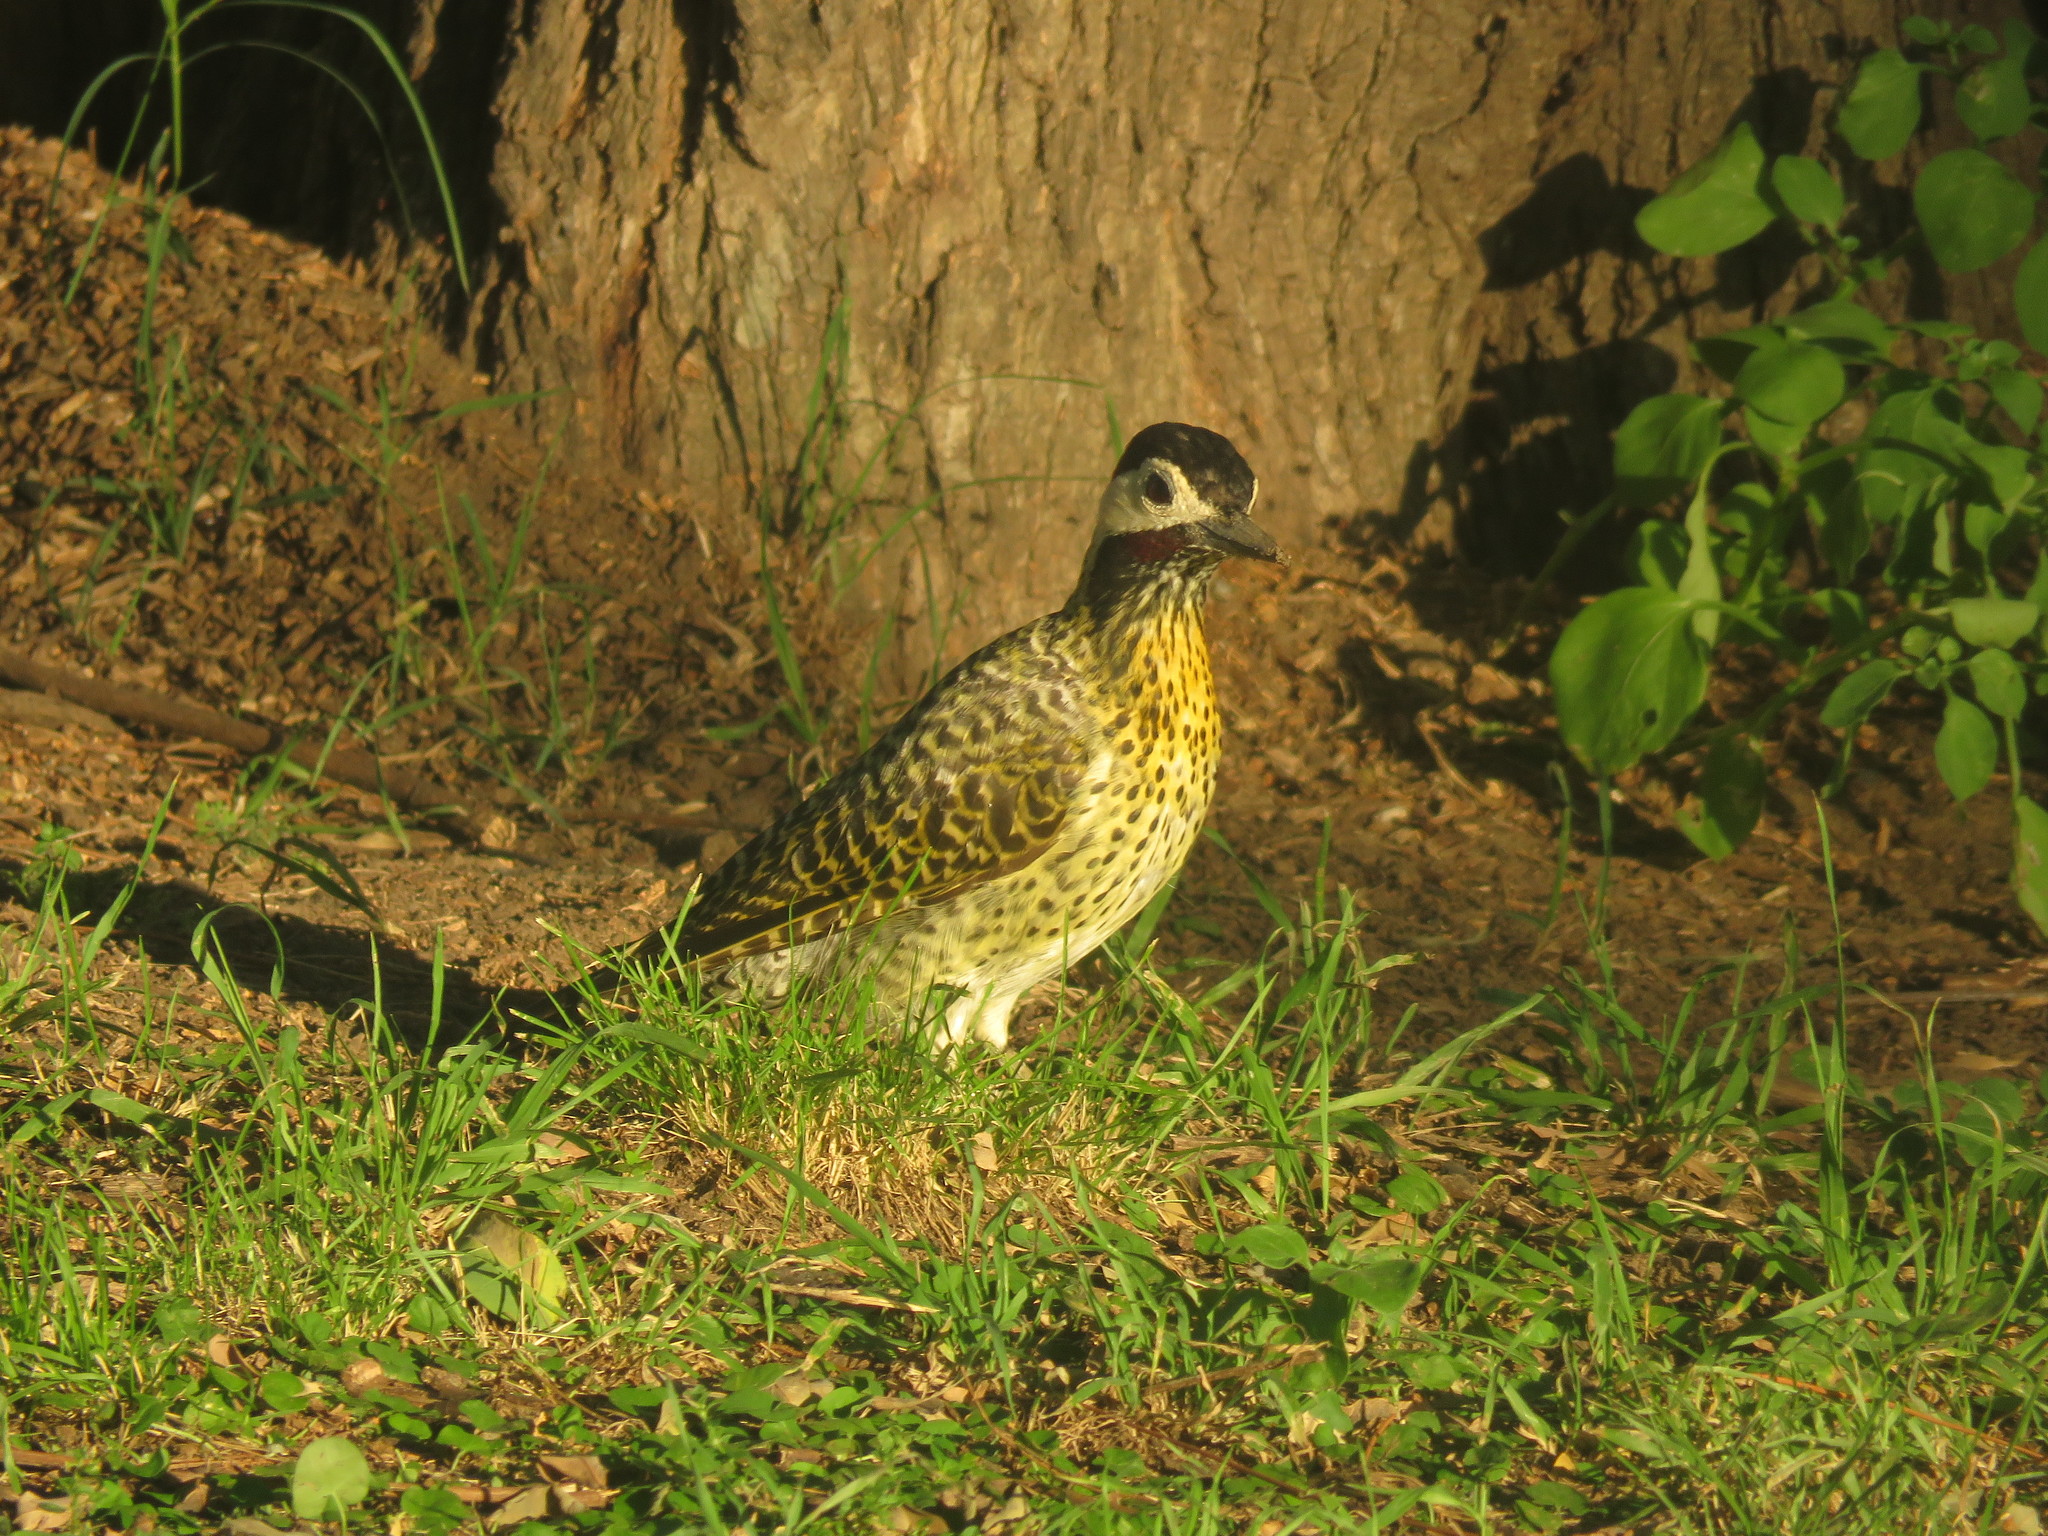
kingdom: Animalia
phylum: Chordata
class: Aves
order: Piciformes
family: Picidae
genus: Colaptes
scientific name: Colaptes melanochloros
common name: Green-barred woodpecker
